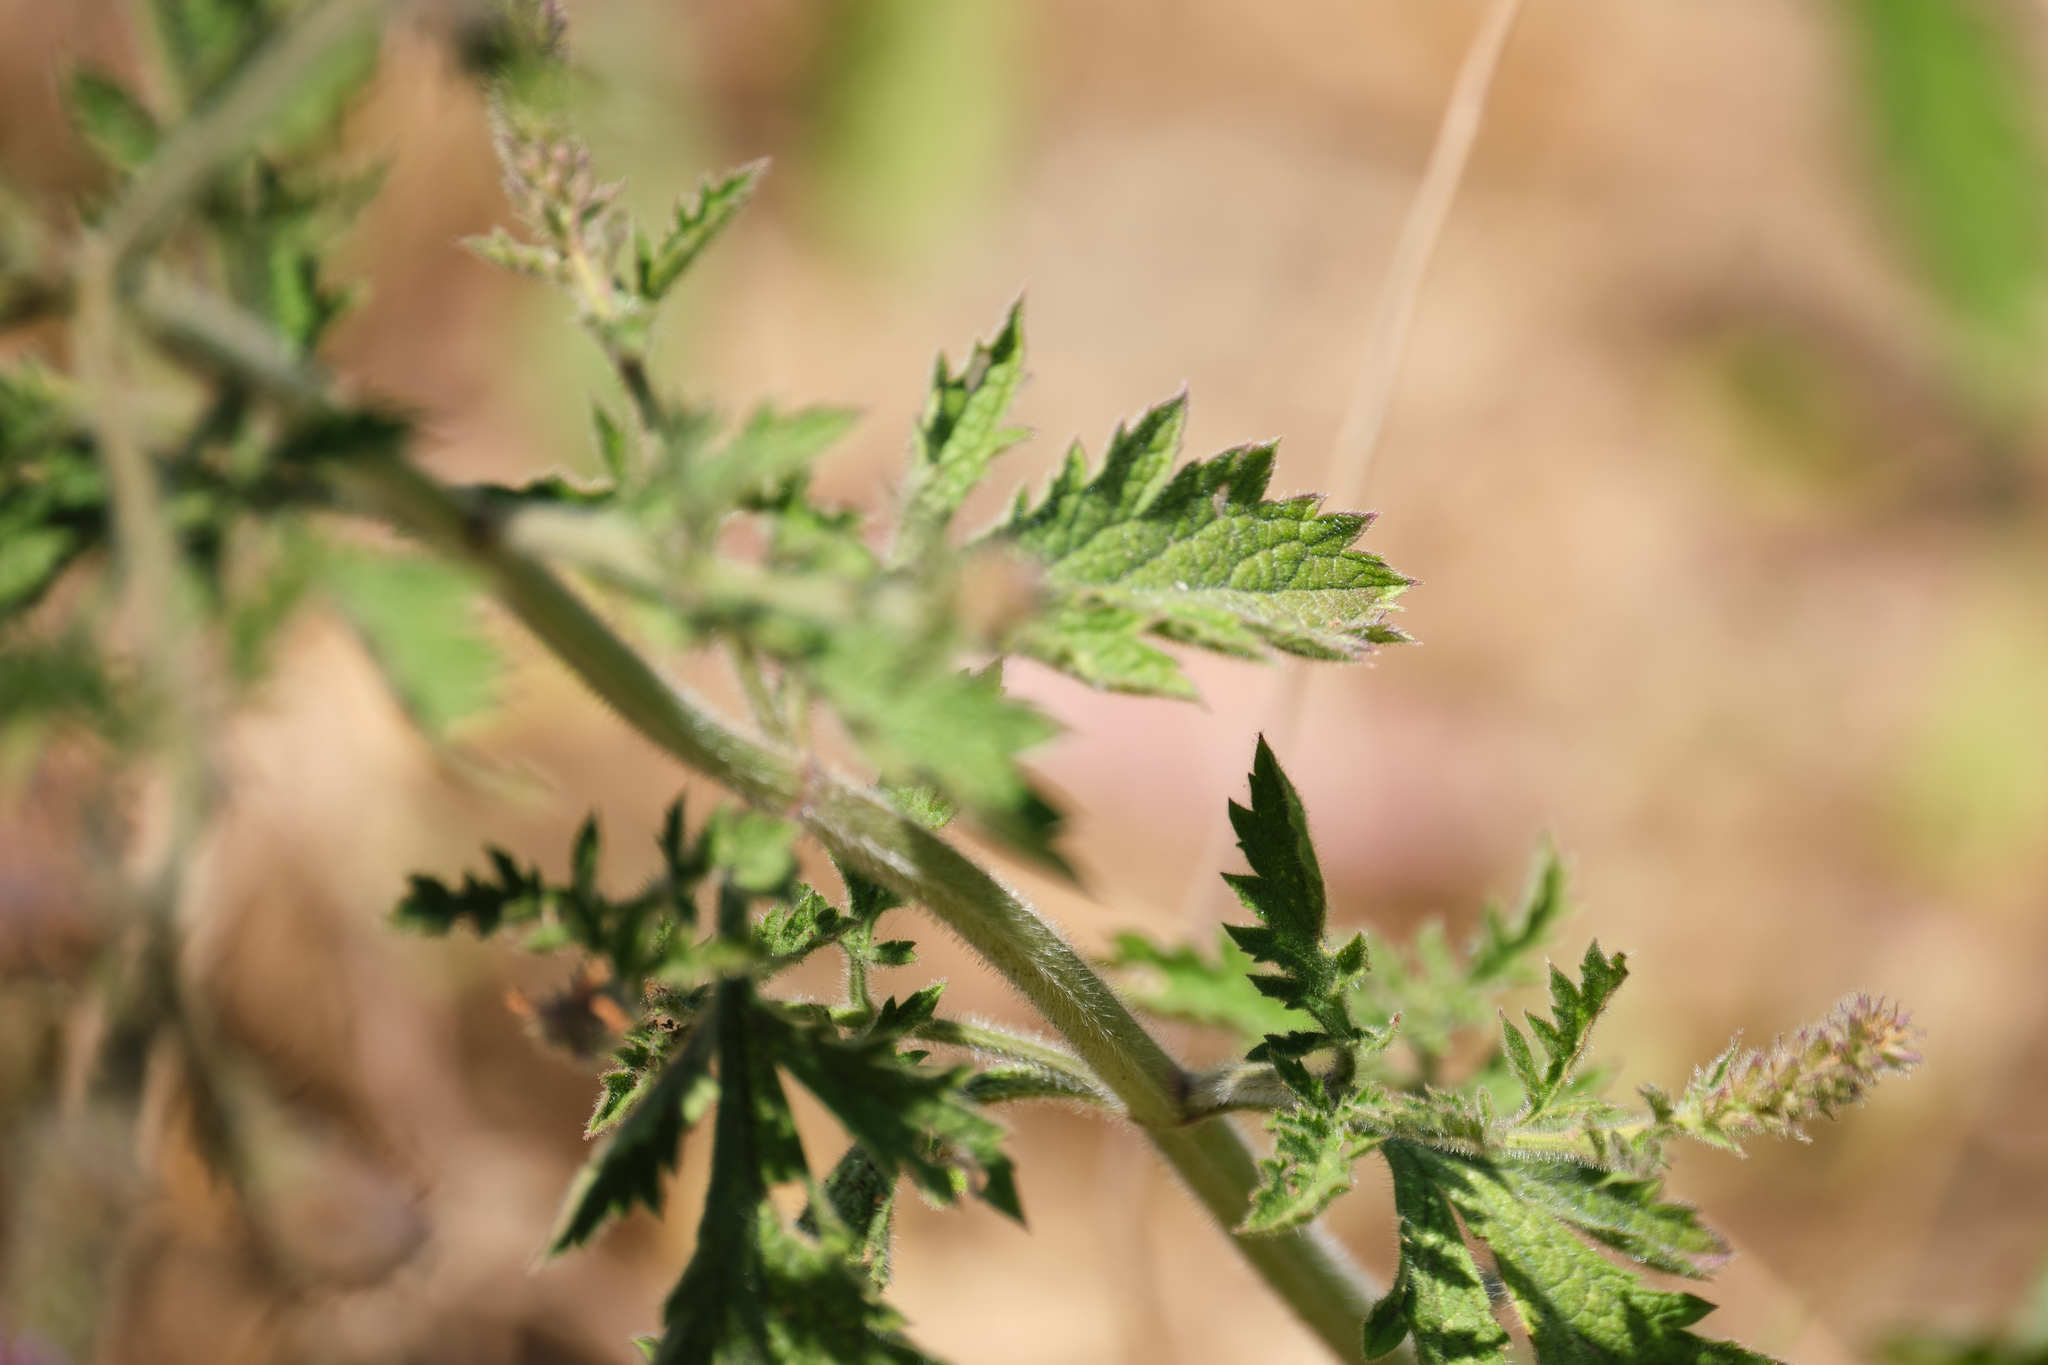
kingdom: Plantae
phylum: Tracheophyta
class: Magnoliopsida
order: Lamiales
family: Verbenaceae
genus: Verbena
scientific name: Verbena lasiostachys
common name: Vervain
